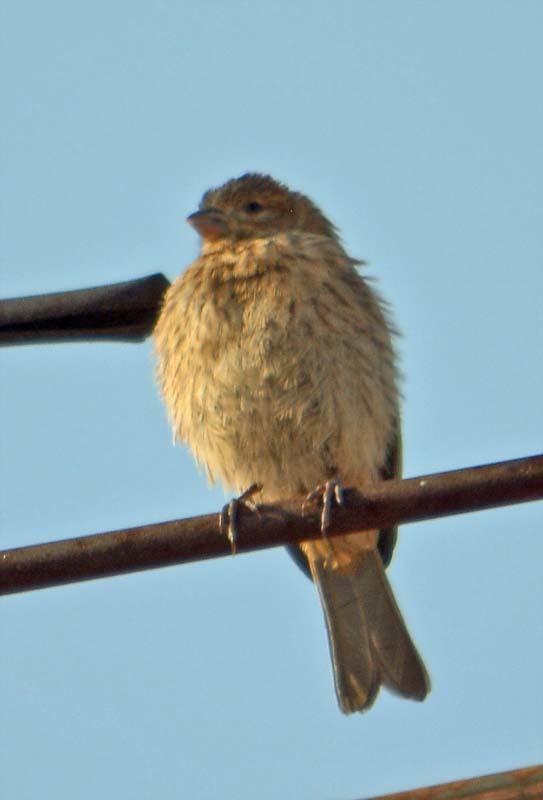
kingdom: Animalia
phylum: Chordata
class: Aves
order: Passeriformes
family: Fringillidae
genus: Haemorhous
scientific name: Haemorhous mexicanus
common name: House finch
